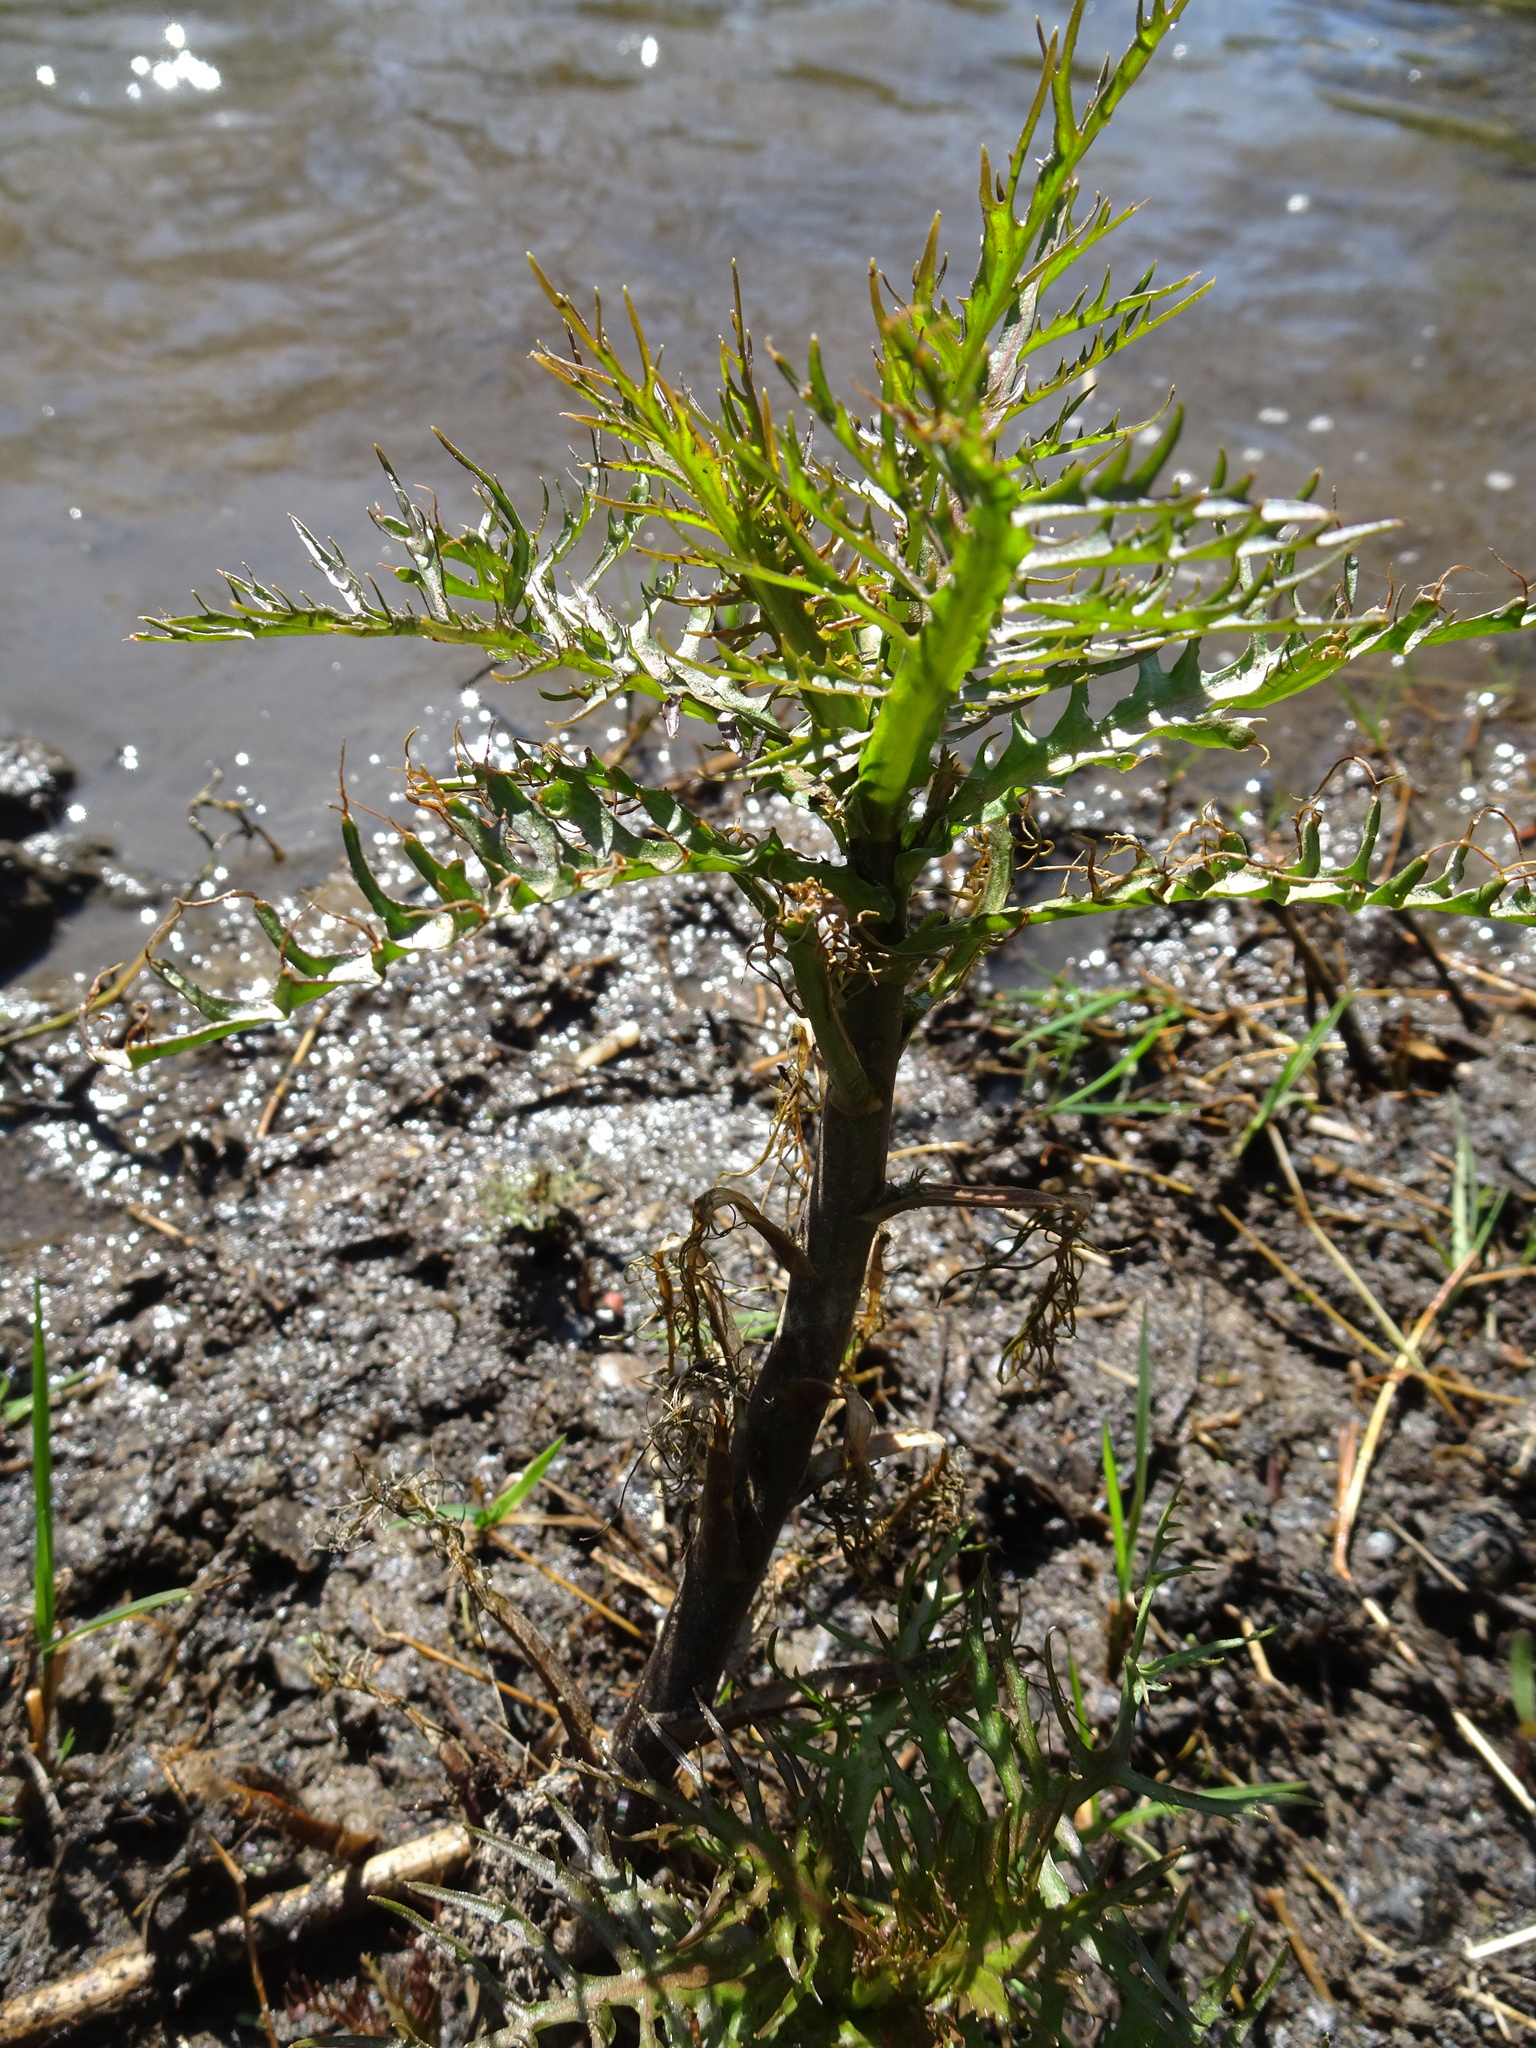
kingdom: Plantae
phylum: Tracheophyta
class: Magnoliopsida
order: Brassicales
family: Brassicaceae
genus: Rorippa
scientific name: Rorippa amphibia
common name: Great yellow-cress
